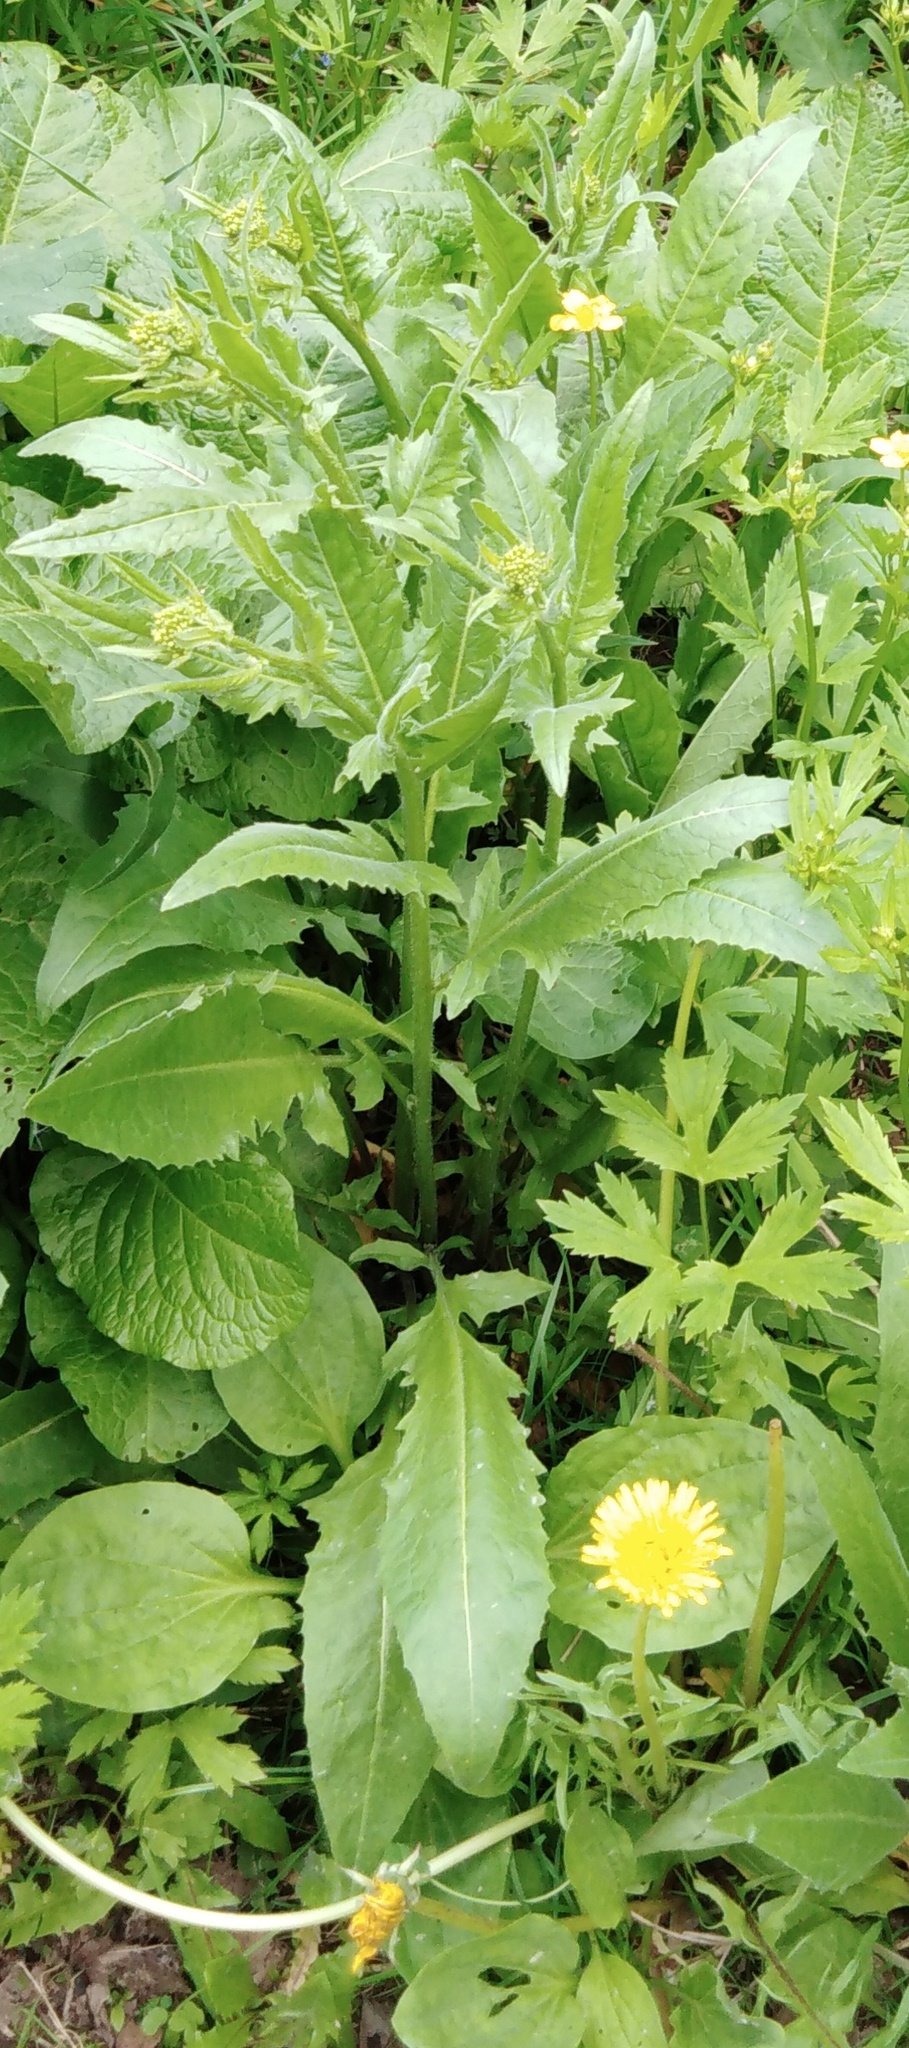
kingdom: Plantae
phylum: Tracheophyta
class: Magnoliopsida
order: Brassicales
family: Brassicaceae
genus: Bunias
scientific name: Bunias orientalis
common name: Warty-cabbage
